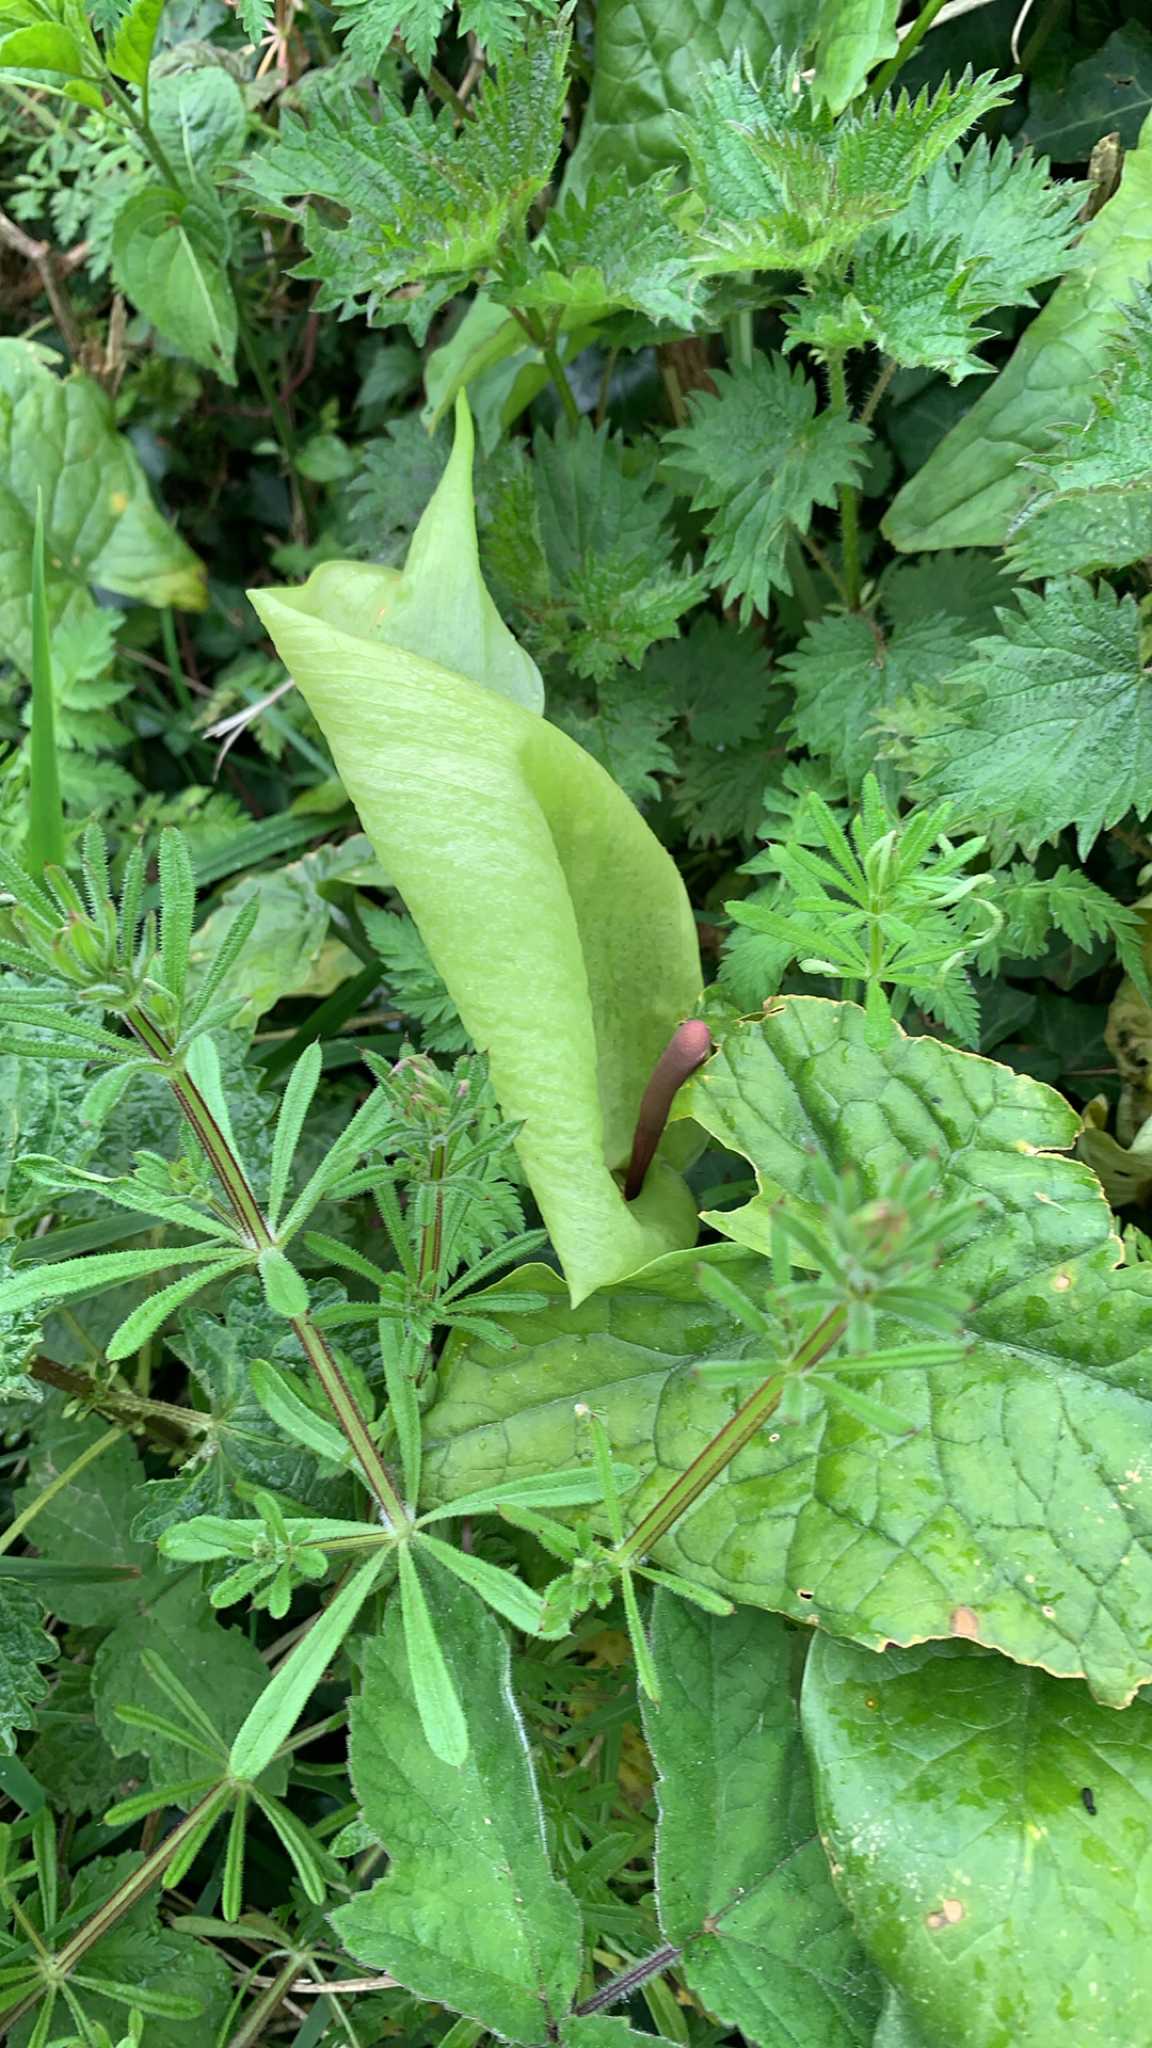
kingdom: Plantae
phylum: Tracheophyta
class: Liliopsida
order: Alismatales
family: Araceae
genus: Arum
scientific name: Arum maculatum
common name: Lords-and-ladies
